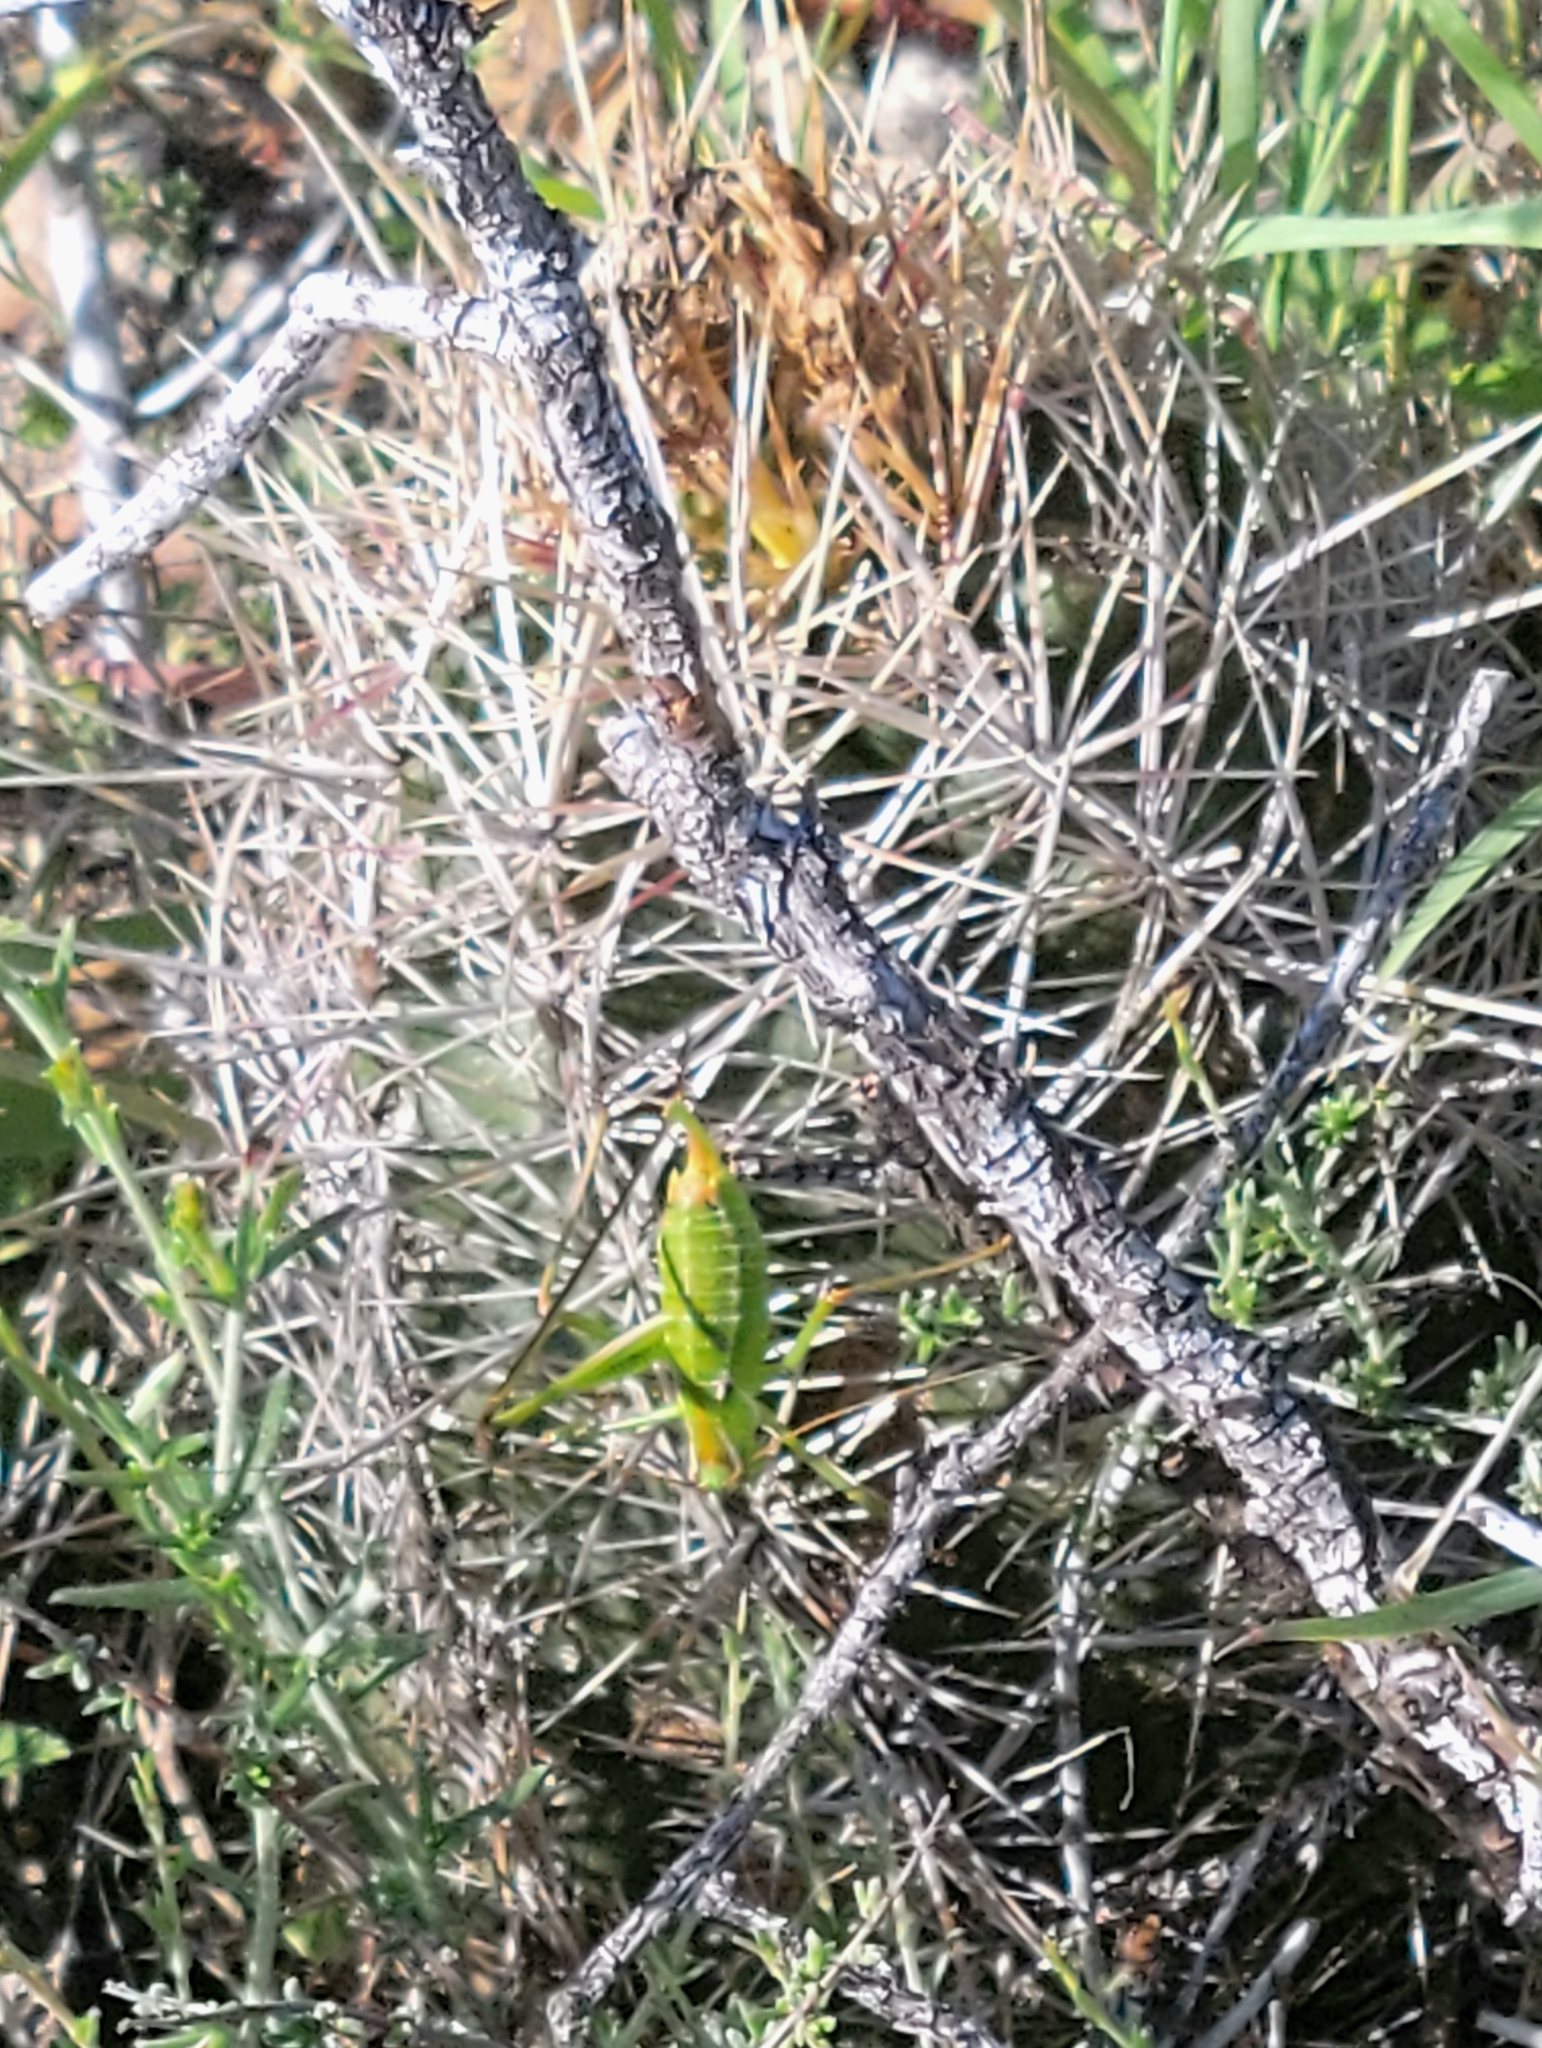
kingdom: Plantae
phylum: Tracheophyta
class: Magnoliopsida
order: Caryophyllales
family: Cactaceae
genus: Thelocactus
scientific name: Thelocactus bicolor
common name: Glory of texas
